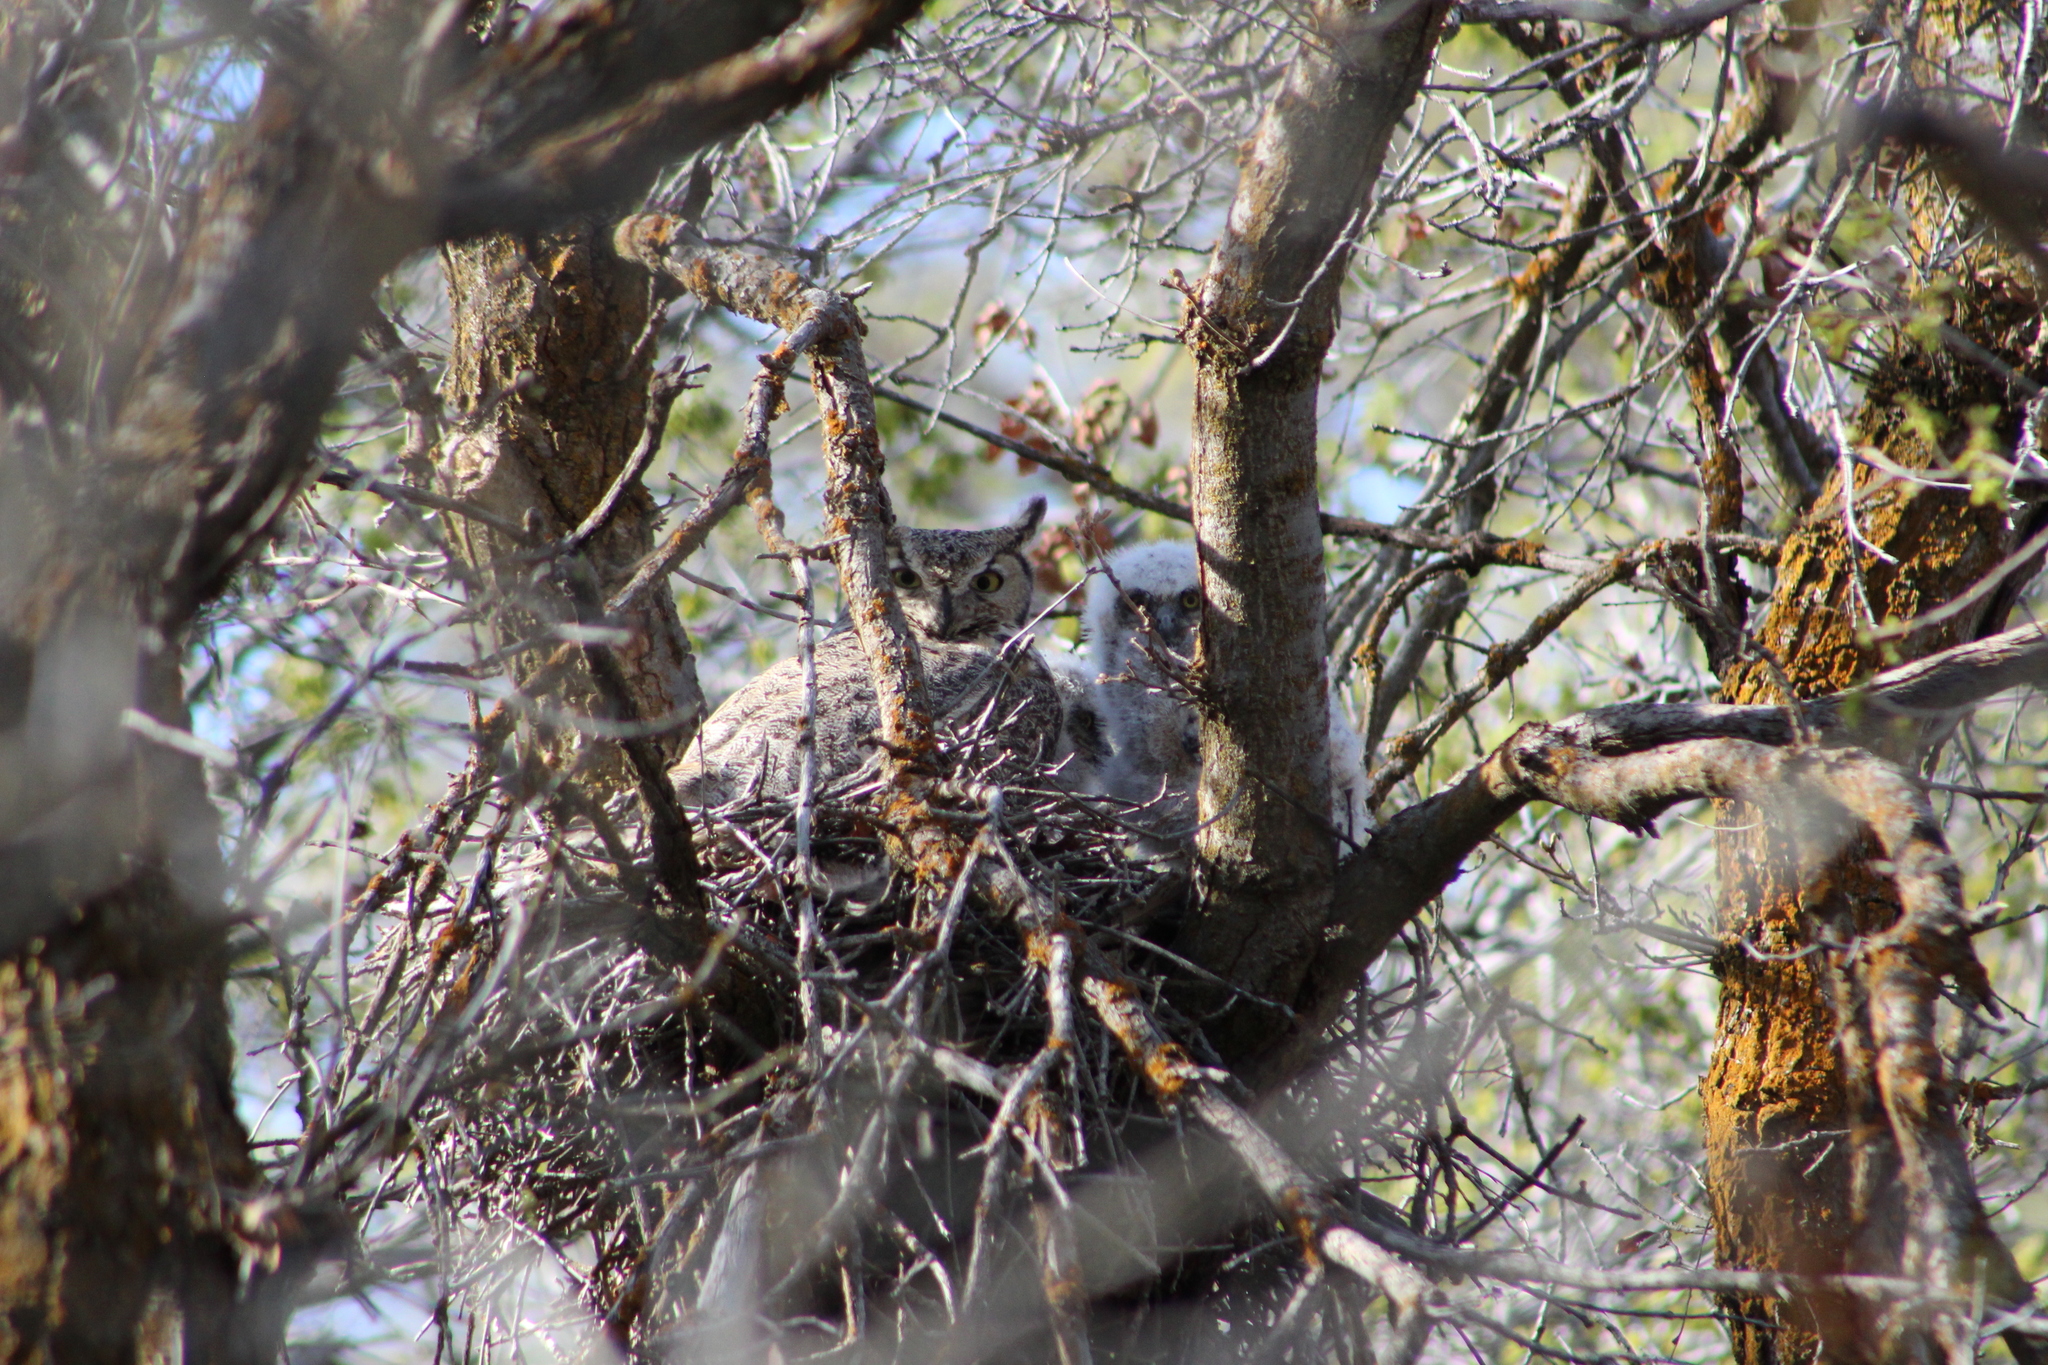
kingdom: Animalia
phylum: Chordata
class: Aves
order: Strigiformes
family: Strigidae
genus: Bubo
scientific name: Bubo virginianus
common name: Great horned owl
